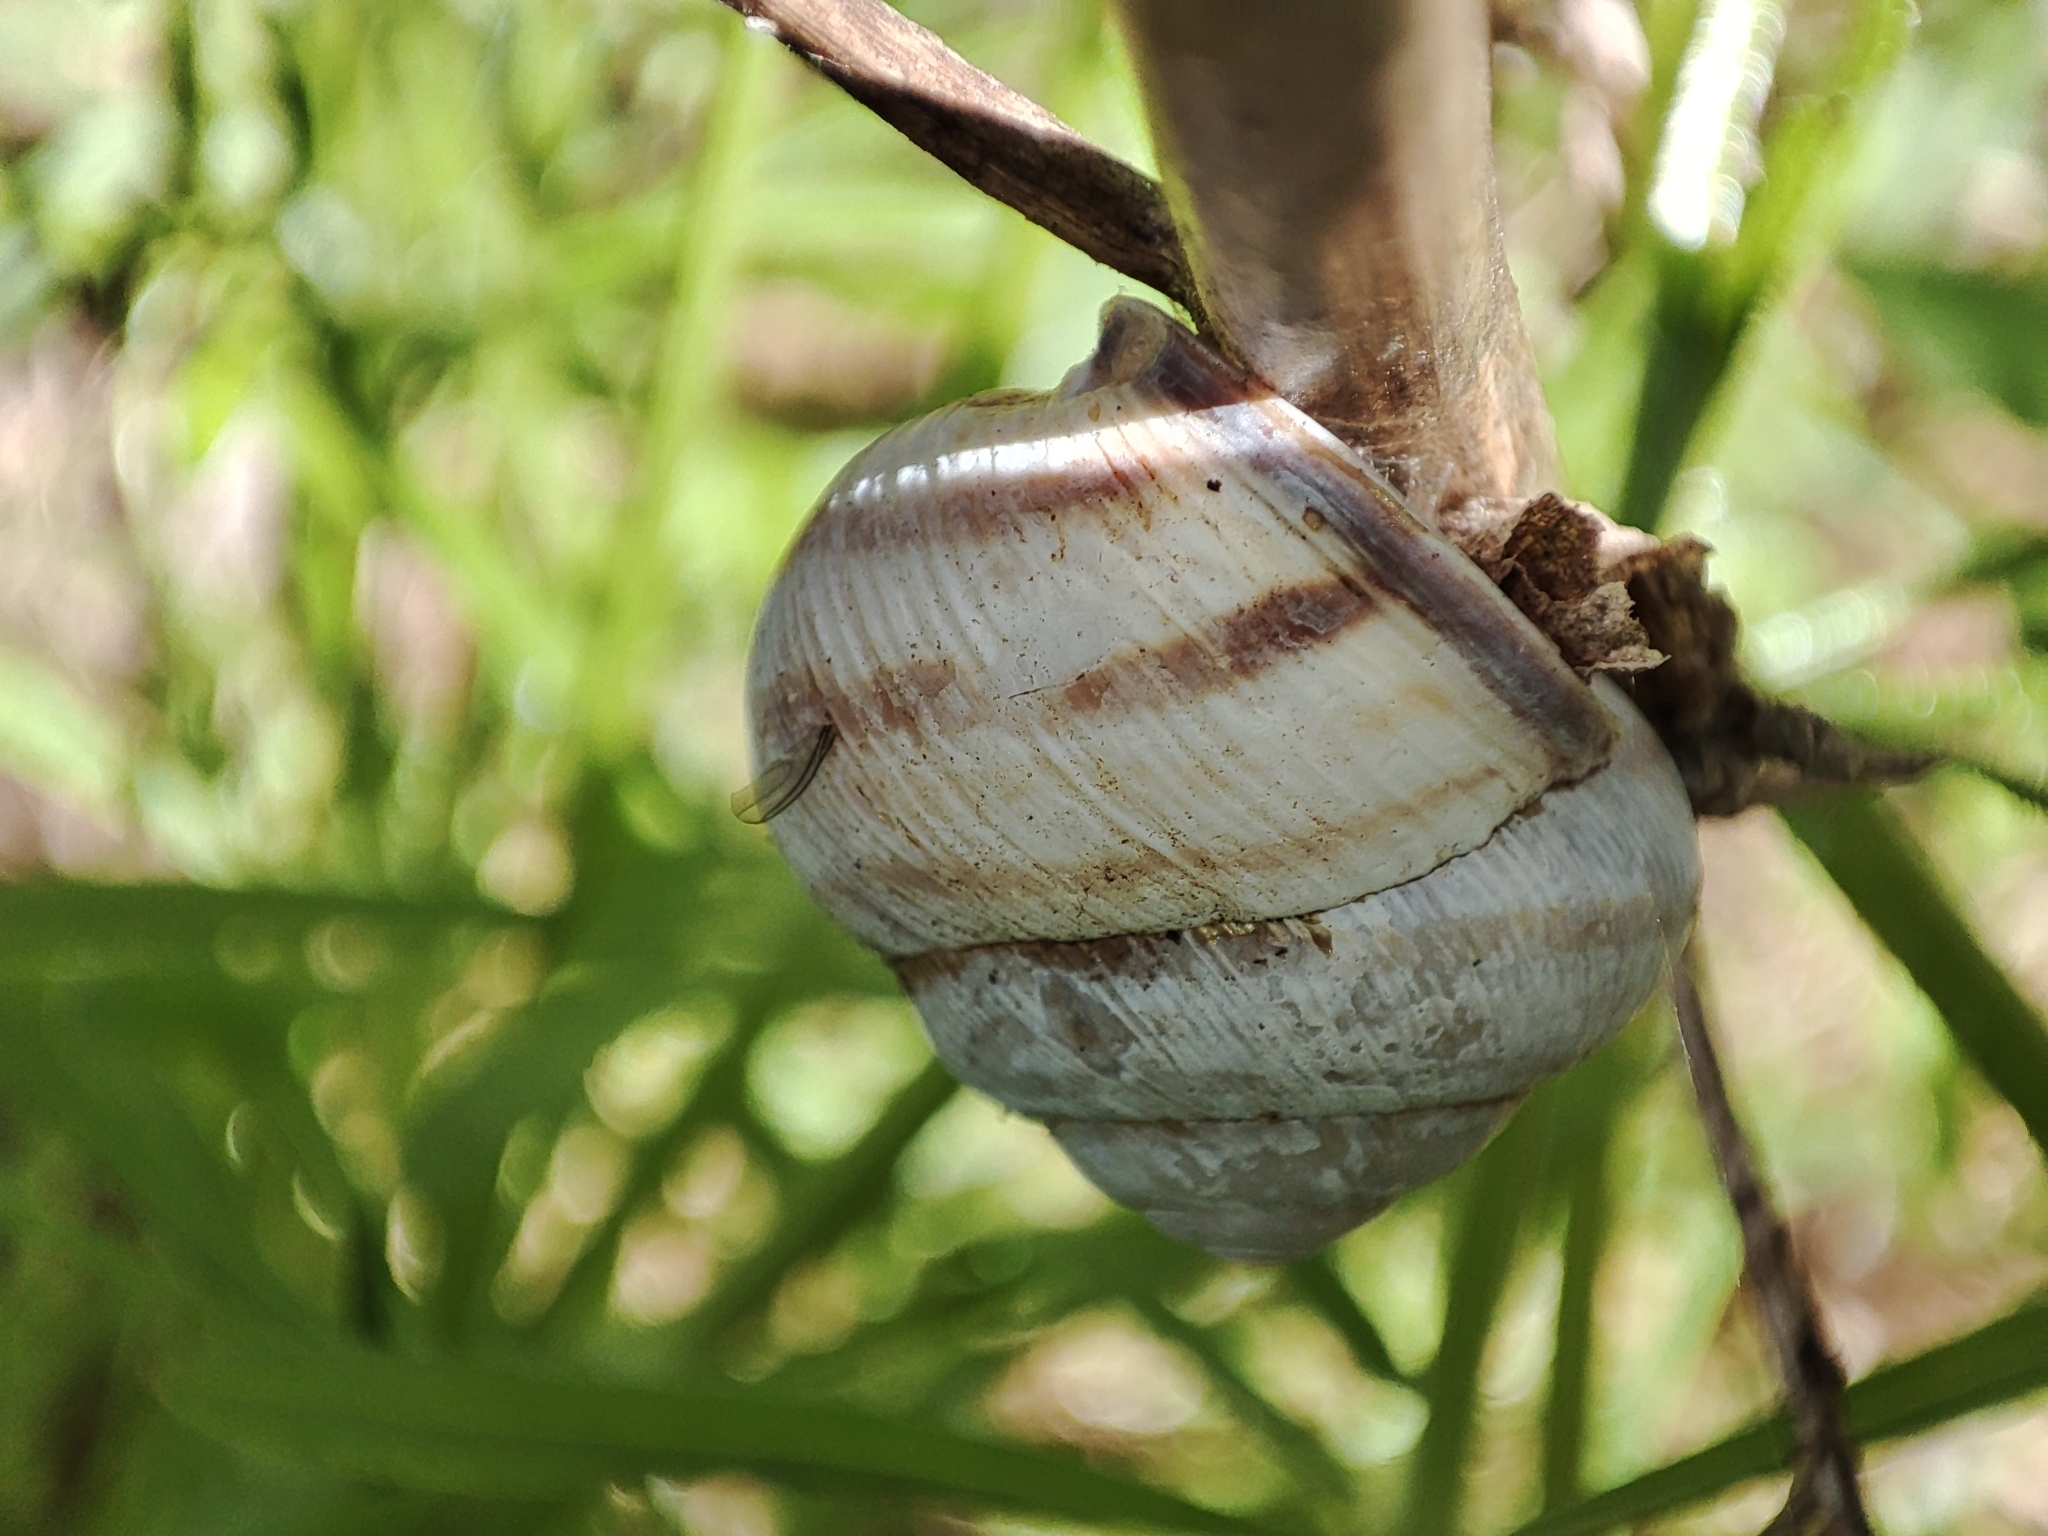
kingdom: Animalia
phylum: Mollusca
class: Gastropoda
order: Stylommatophora
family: Helicidae
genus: Caucasotachea
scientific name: Caucasotachea vindobonensis
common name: European helicid land snail
